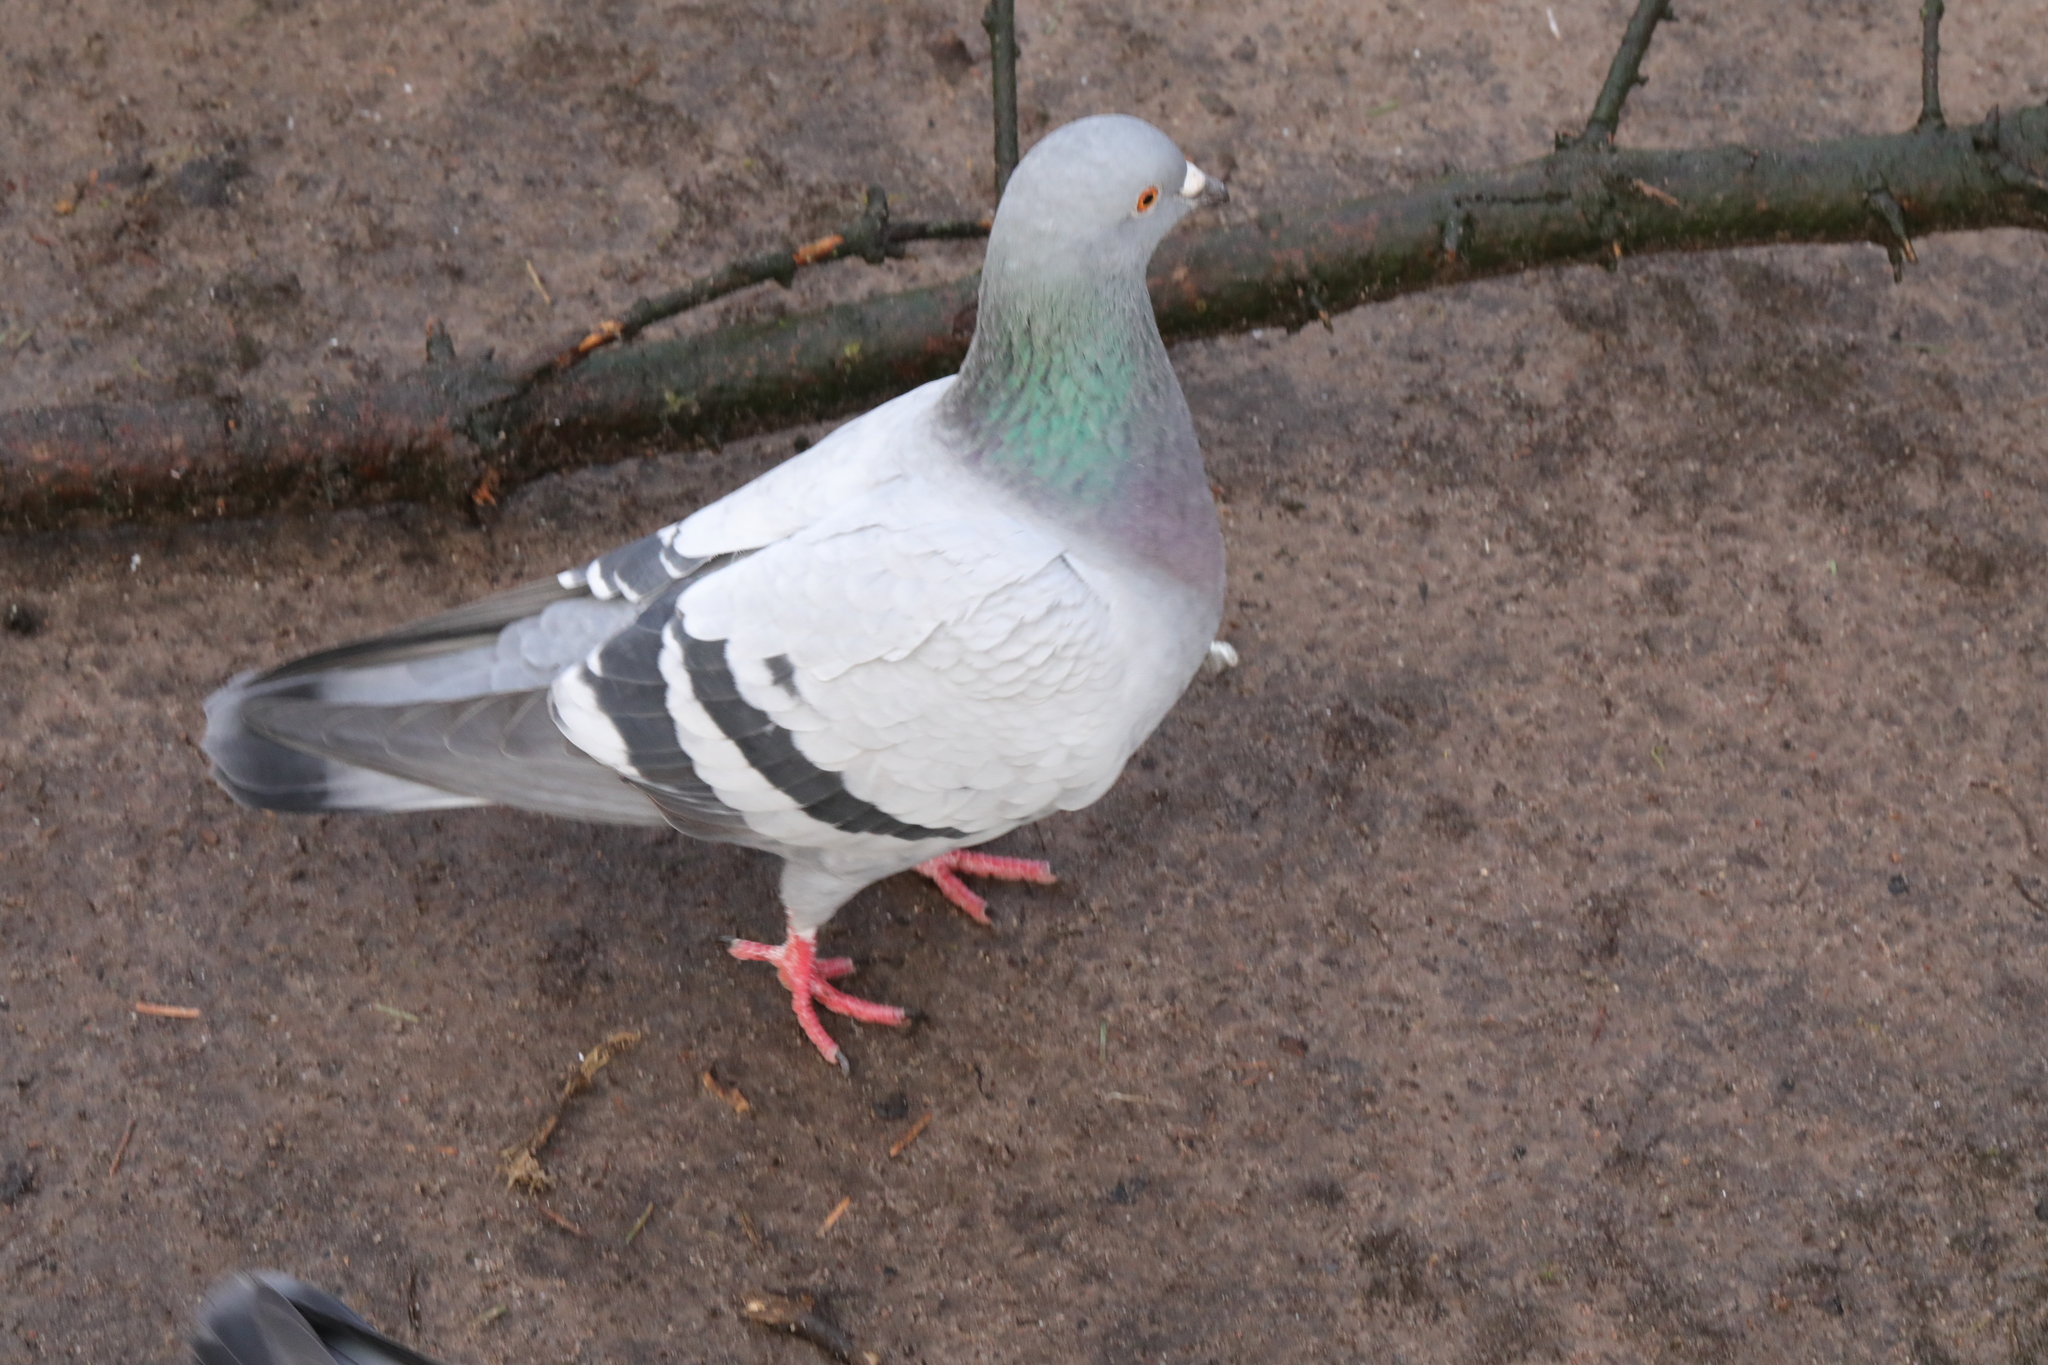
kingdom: Animalia
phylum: Chordata
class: Aves
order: Columbiformes
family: Columbidae
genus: Columba
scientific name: Columba livia
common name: Rock pigeon
